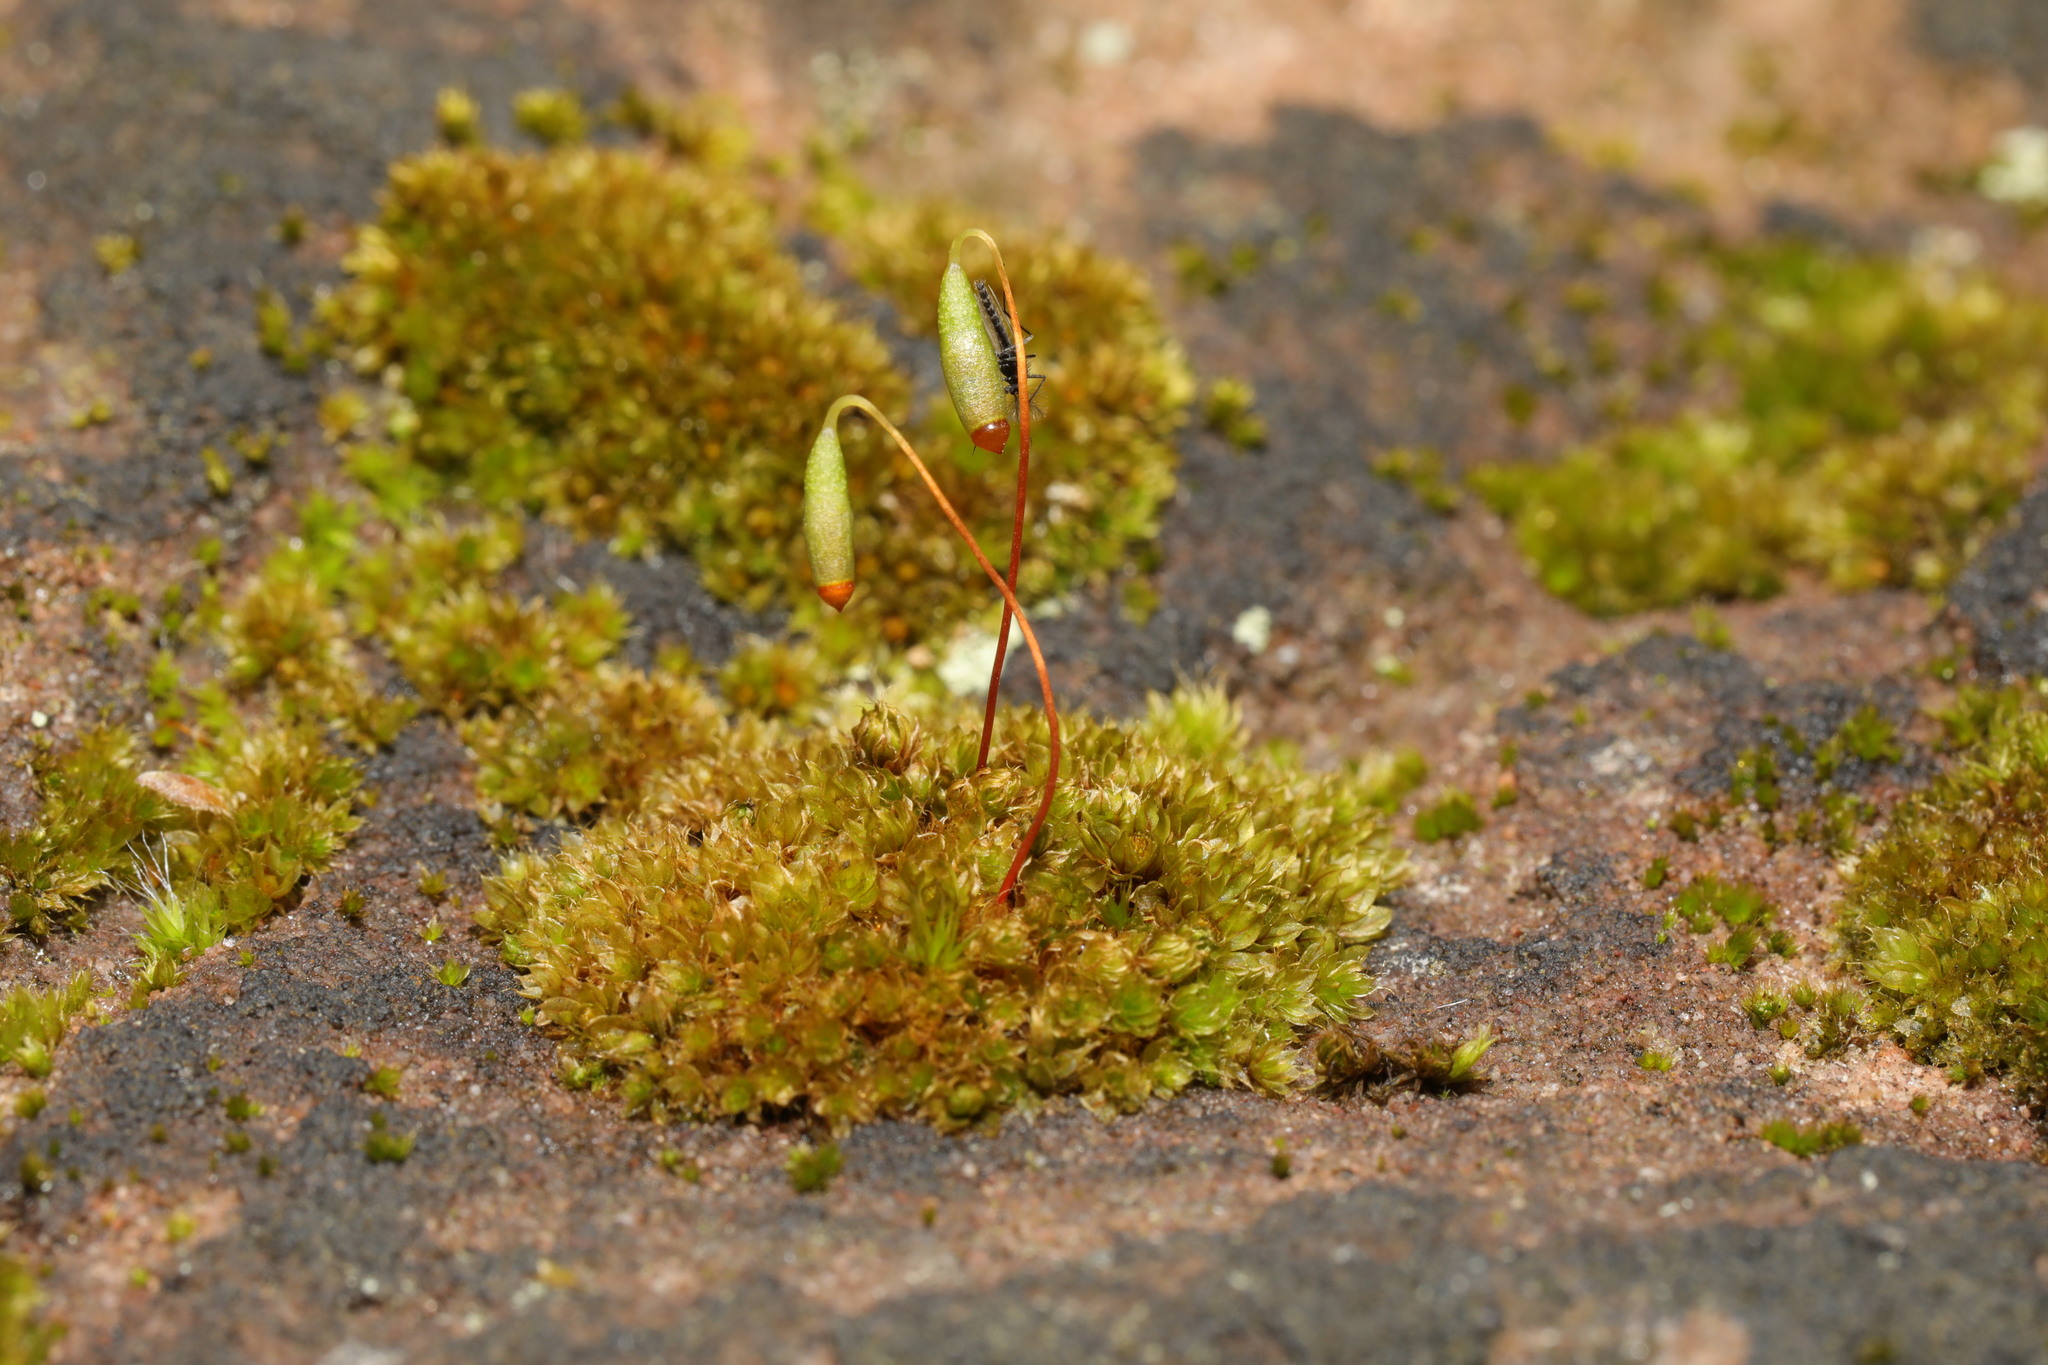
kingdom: Plantae
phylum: Bryophyta
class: Bryopsida
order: Bryales
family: Bryaceae
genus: Rosulabryum
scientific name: Rosulabryum capillare
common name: Capillary thread-moss
